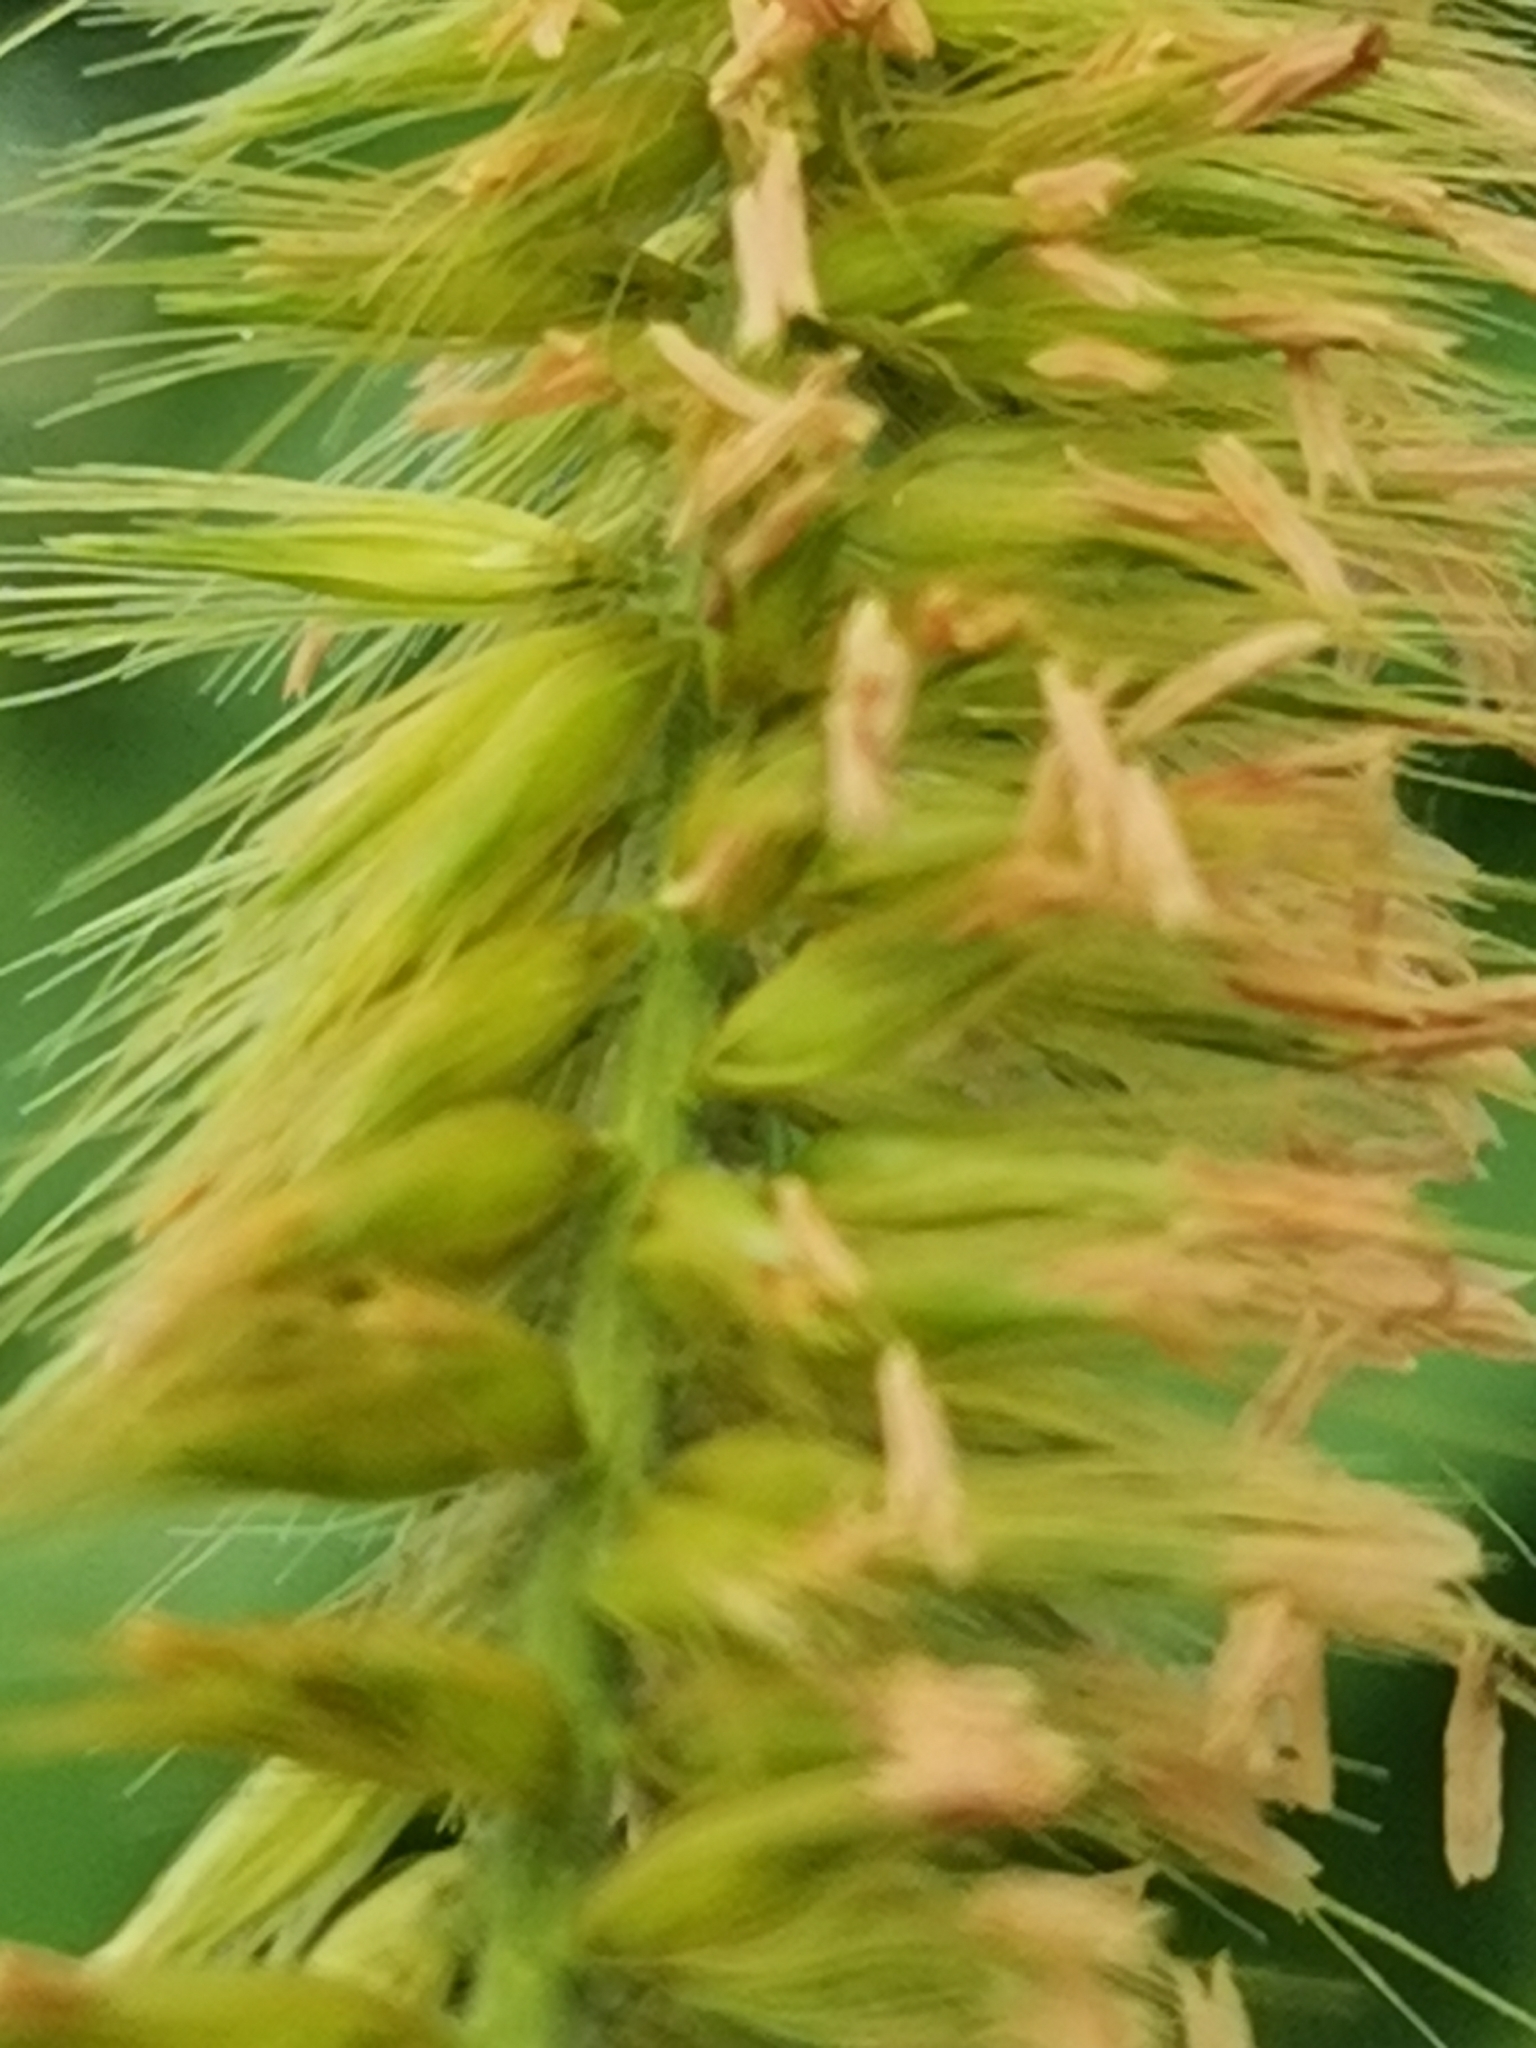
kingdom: Plantae
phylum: Tracheophyta
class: Liliopsida
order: Poales
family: Poaceae
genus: Cenchrus
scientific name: Cenchrus purpureus
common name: Elephant grass
